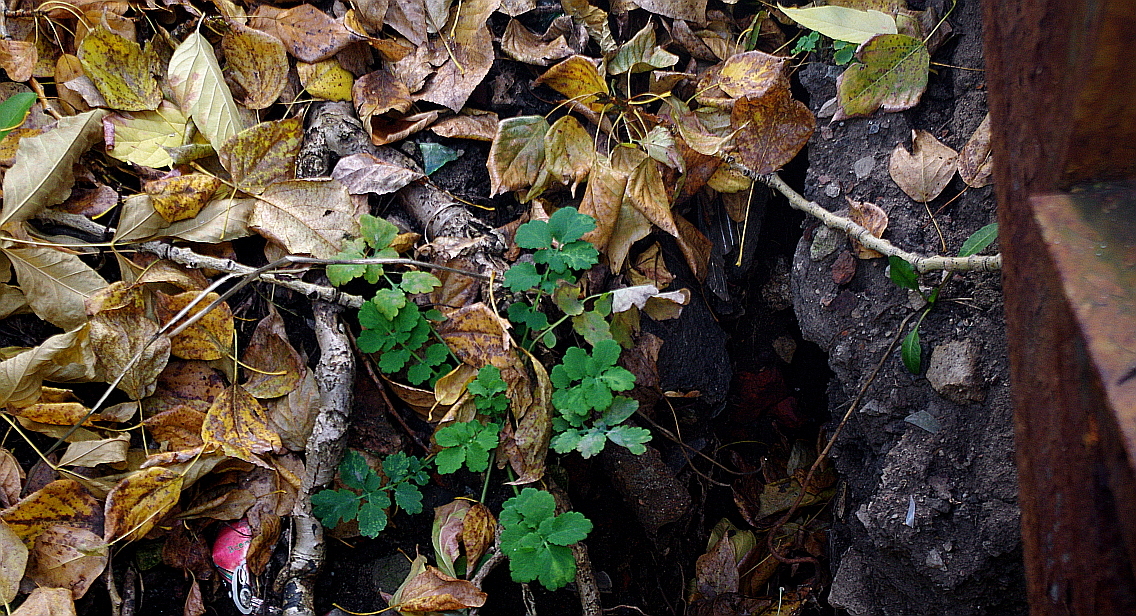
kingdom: Plantae
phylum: Tracheophyta
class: Magnoliopsida
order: Ranunculales
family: Papaveraceae
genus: Chelidonium
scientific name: Chelidonium majus
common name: Greater celandine
